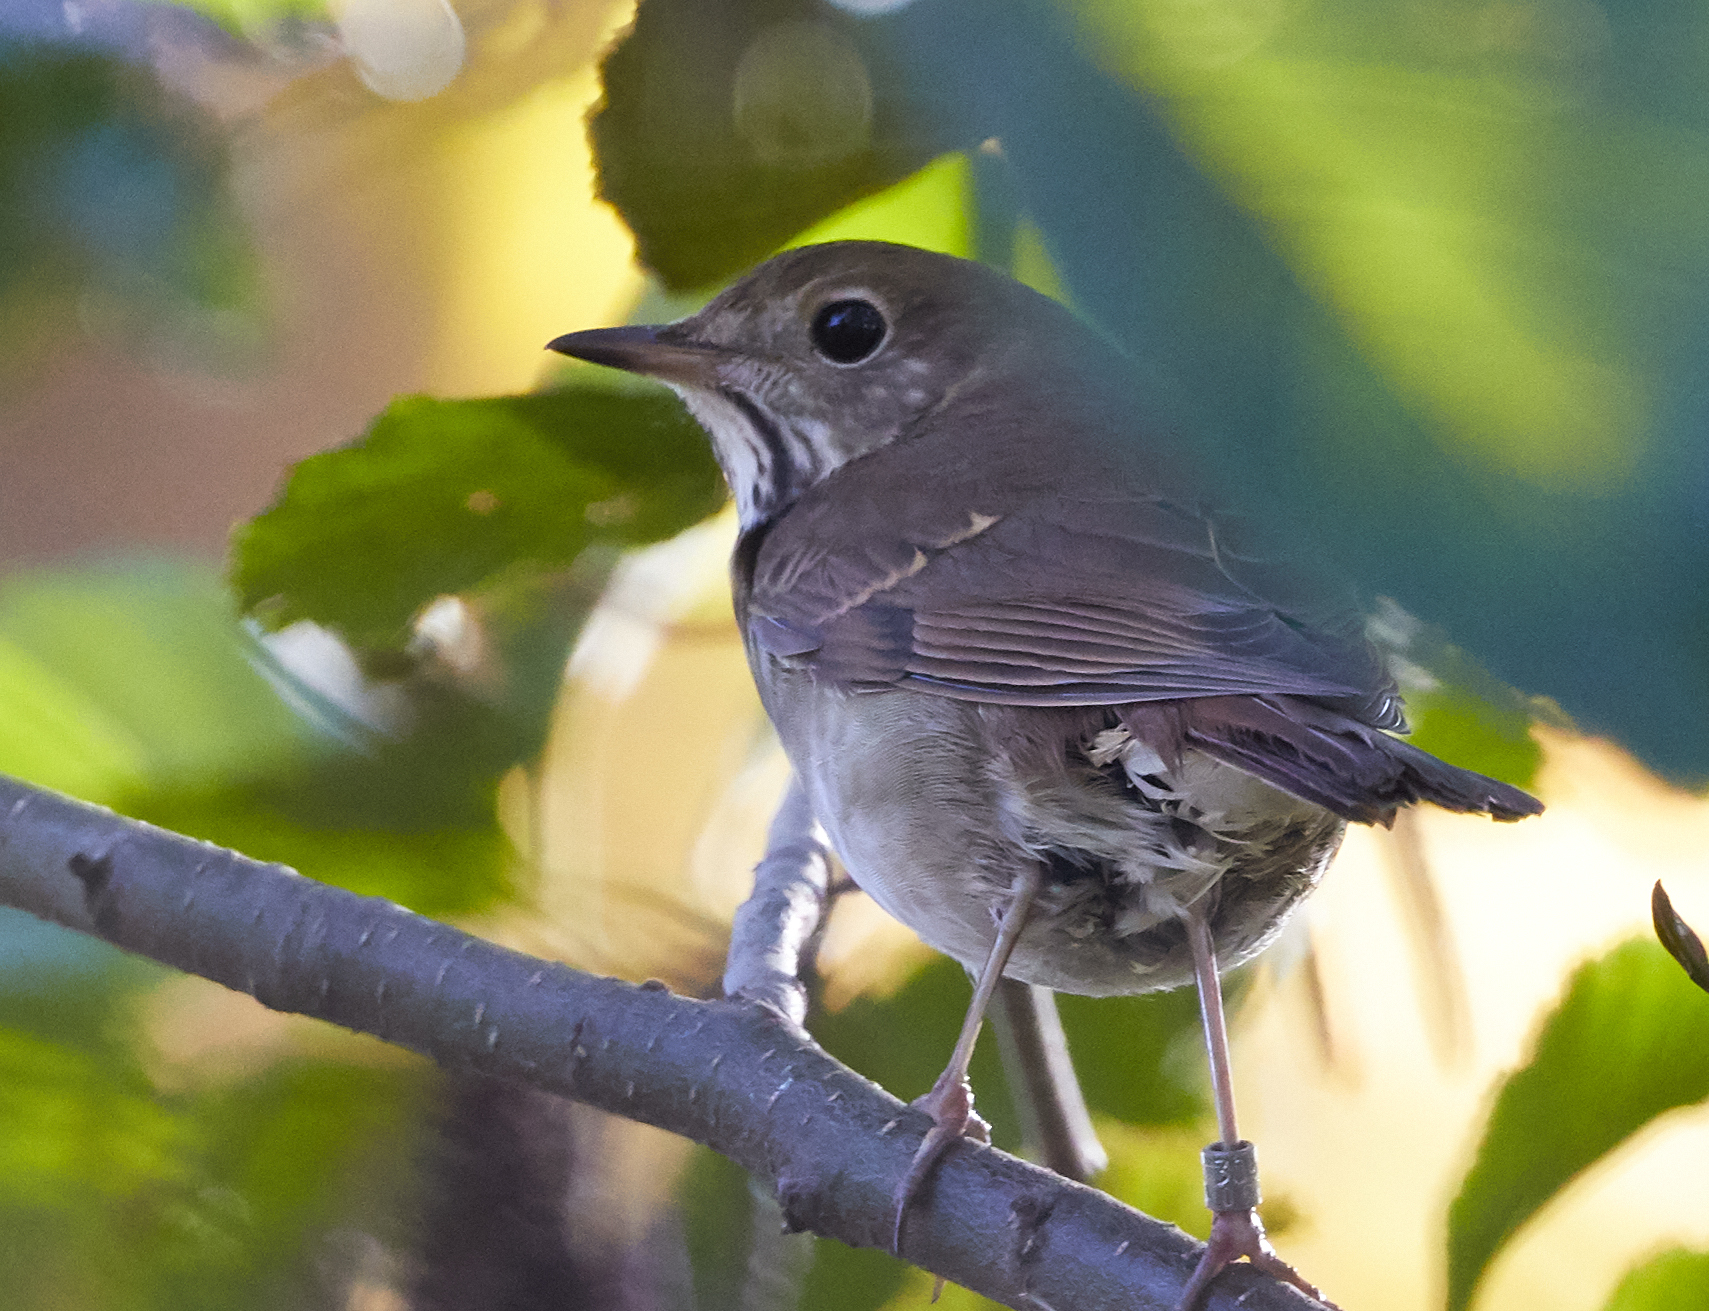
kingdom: Animalia
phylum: Chordata
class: Aves
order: Passeriformes
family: Turdidae
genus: Catharus
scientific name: Catharus guttatus
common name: Hermit thrush
